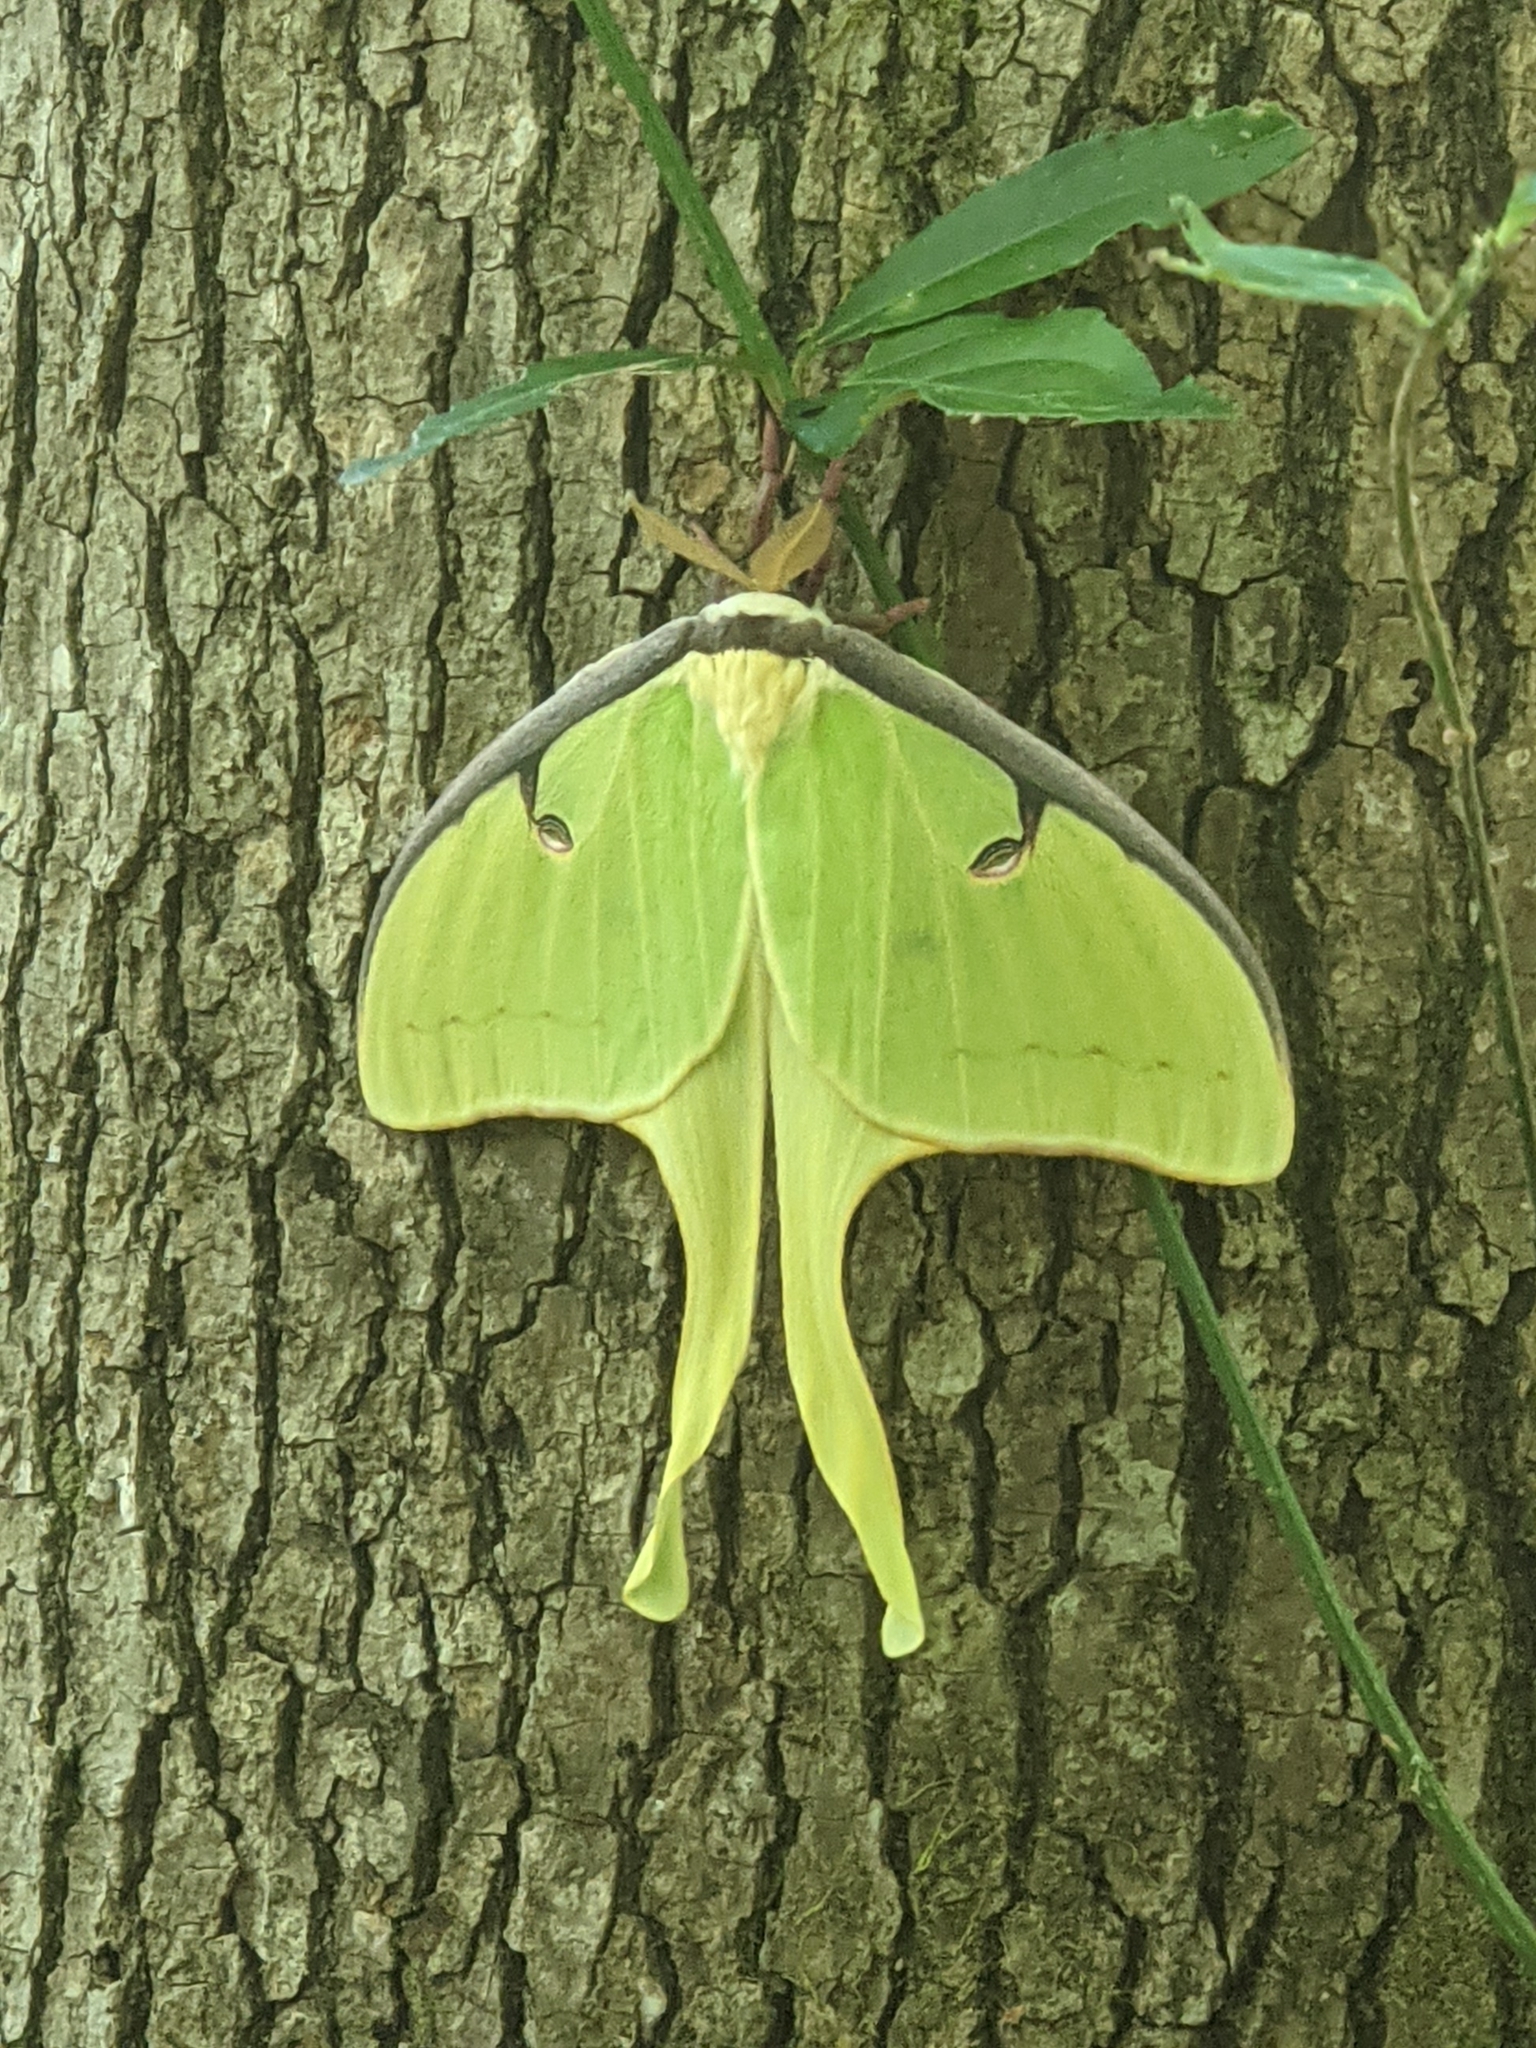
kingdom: Animalia
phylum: Arthropoda
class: Insecta
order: Lepidoptera
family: Saturniidae
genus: Actias
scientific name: Actias luna
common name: Luna moth
